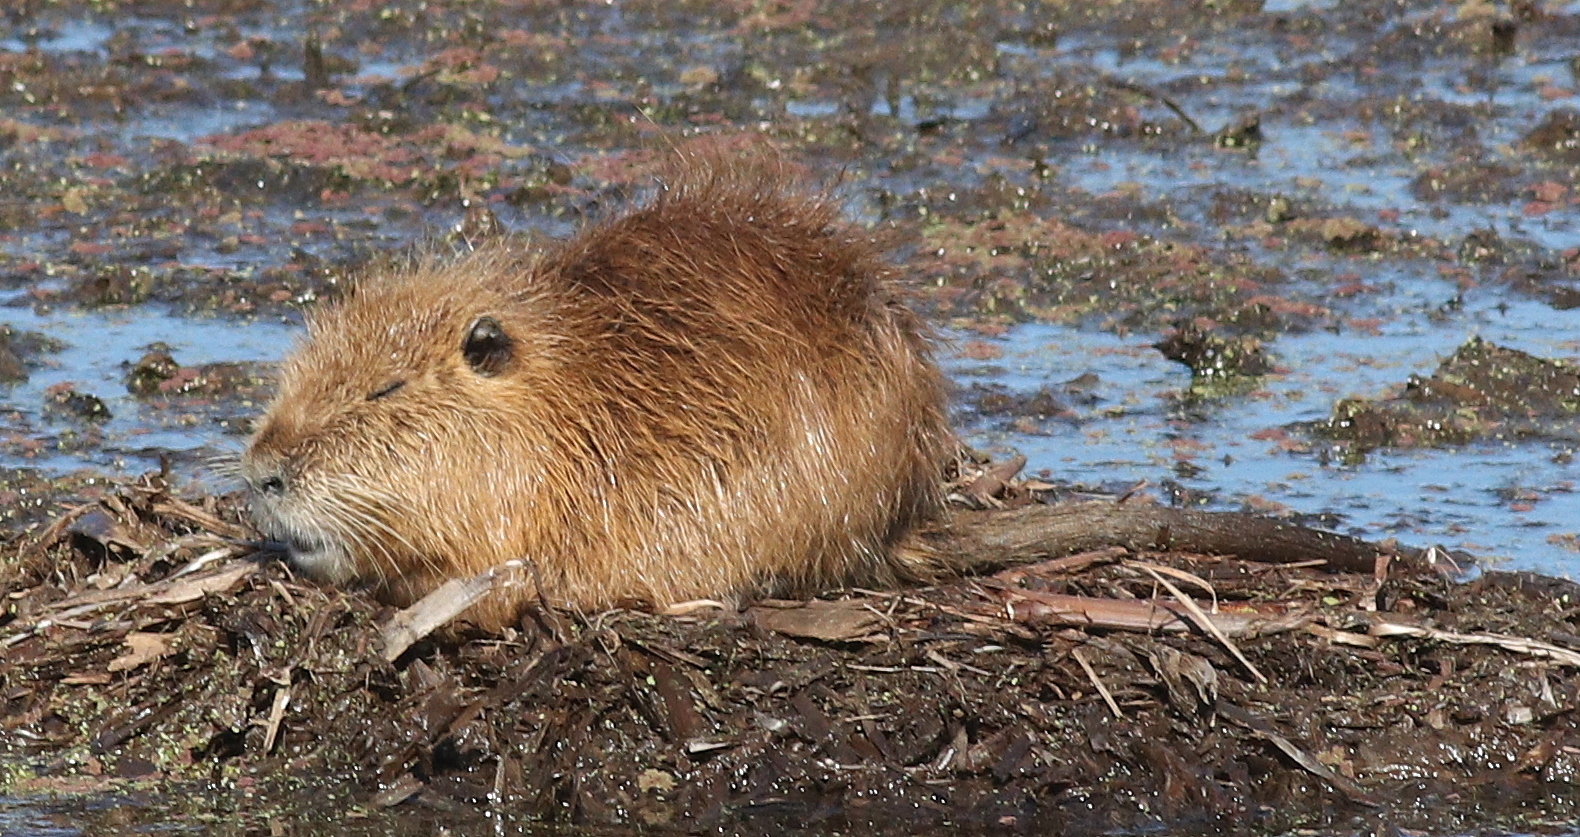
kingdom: Animalia
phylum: Chordata
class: Mammalia
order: Rodentia
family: Myocastoridae
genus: Myocastor
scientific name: Myocastor coypus
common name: Coypu
